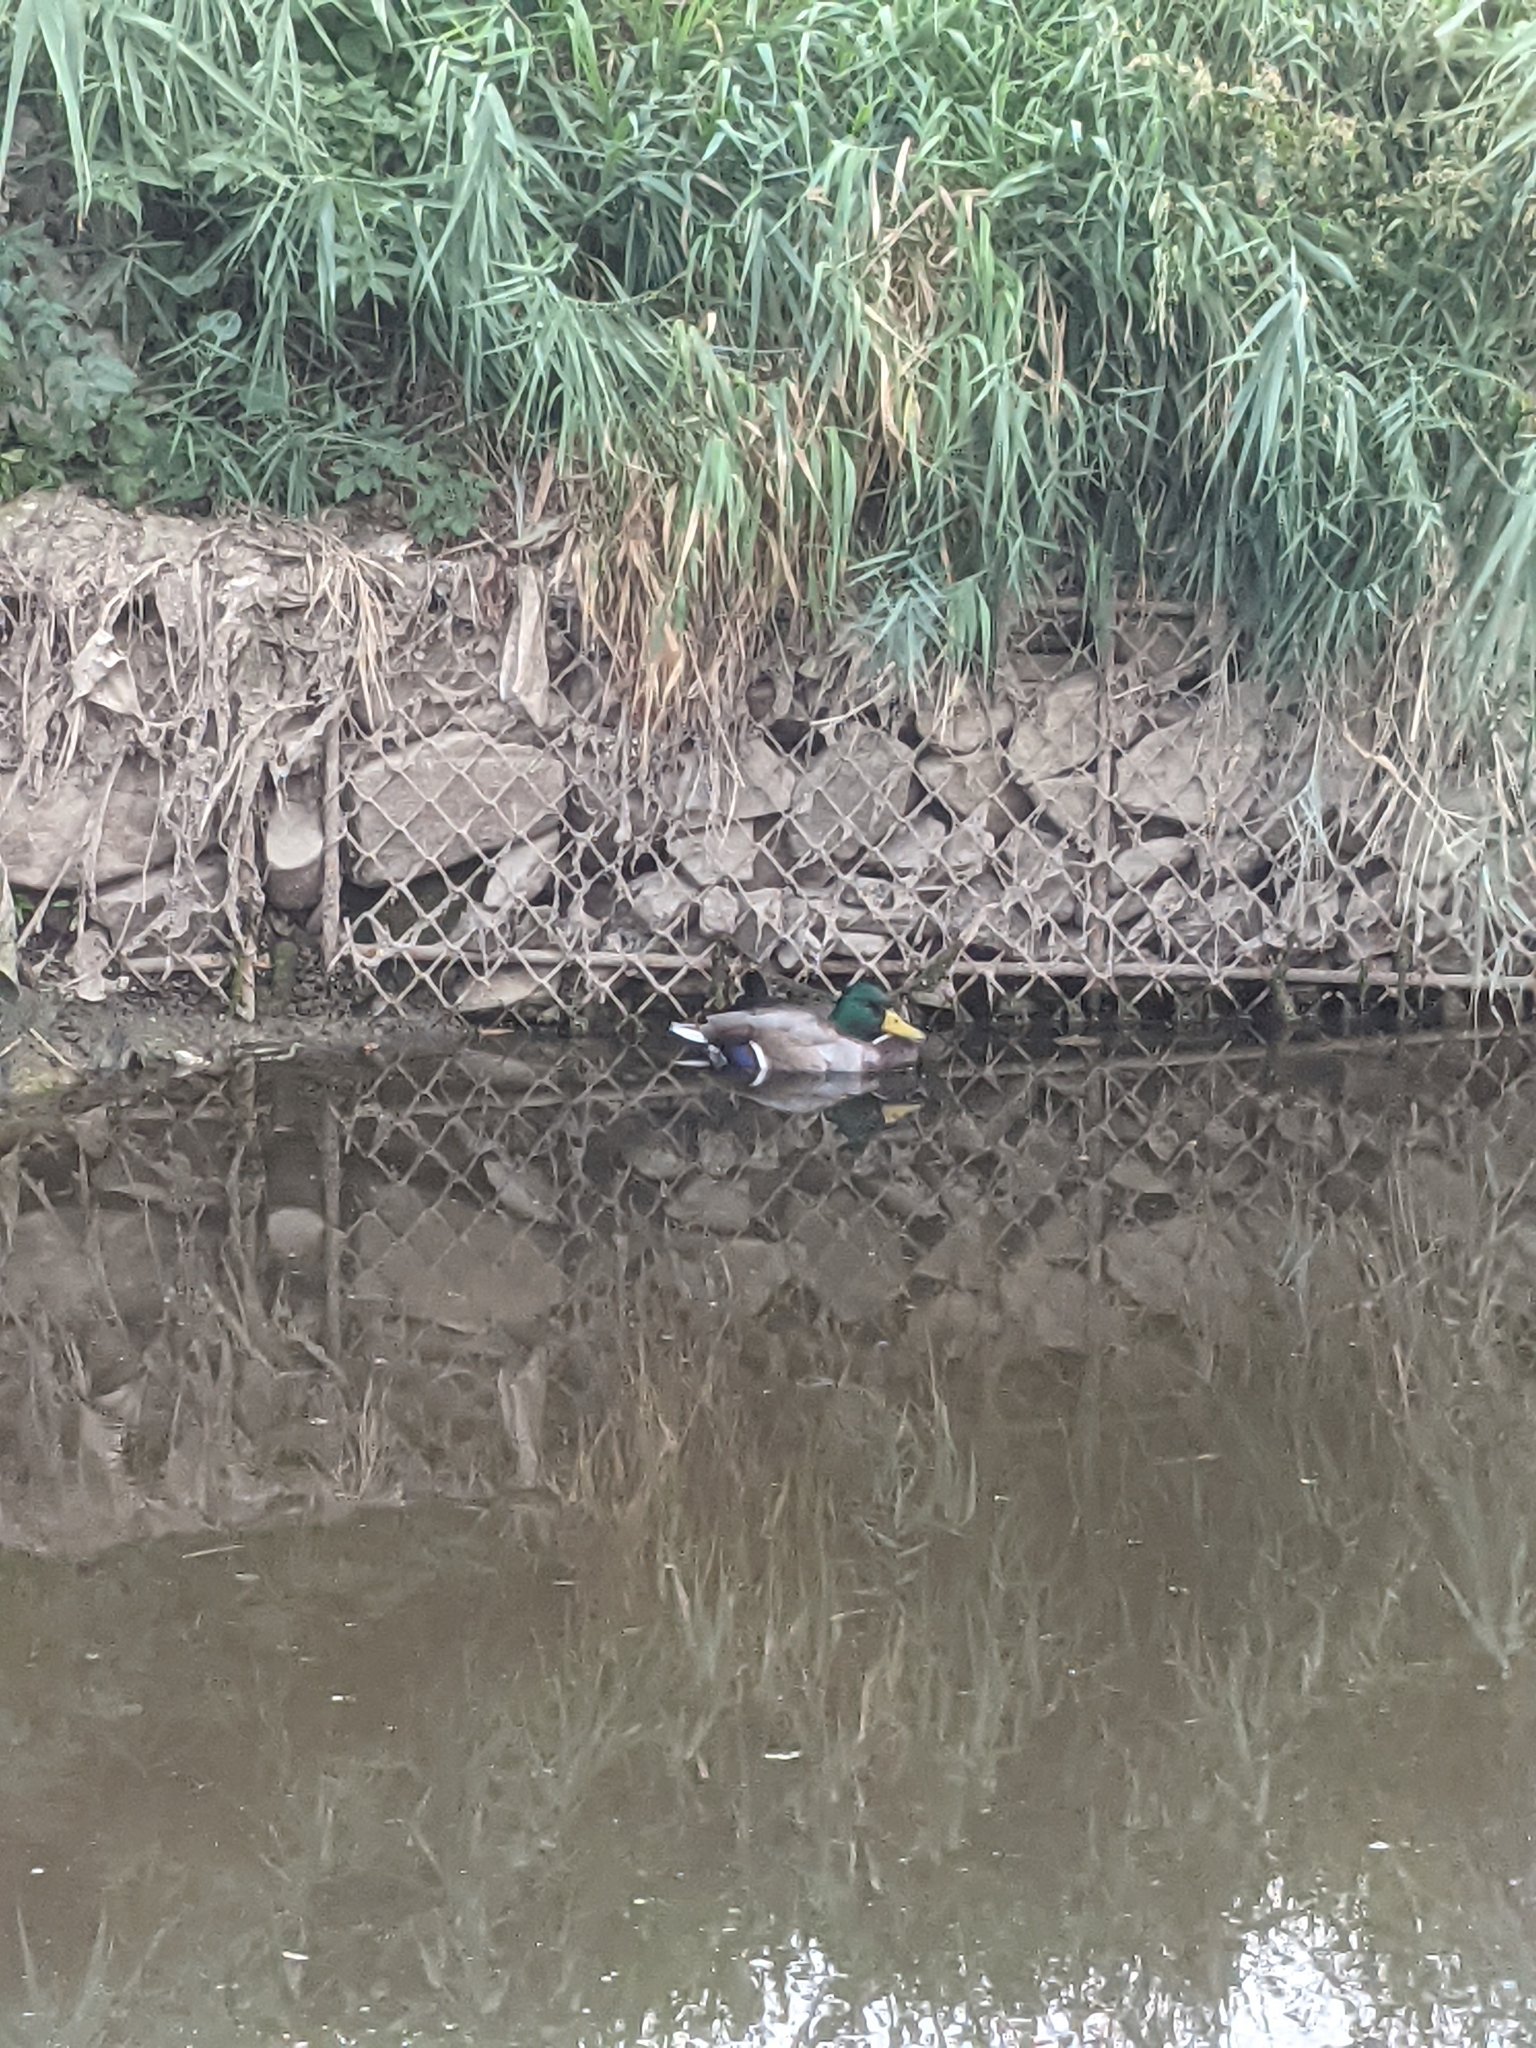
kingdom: Animalia
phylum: Chordata
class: Aves
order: Anseriformes
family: Anatidae
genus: Anas
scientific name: Anas platyrhynchos
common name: Mallard
